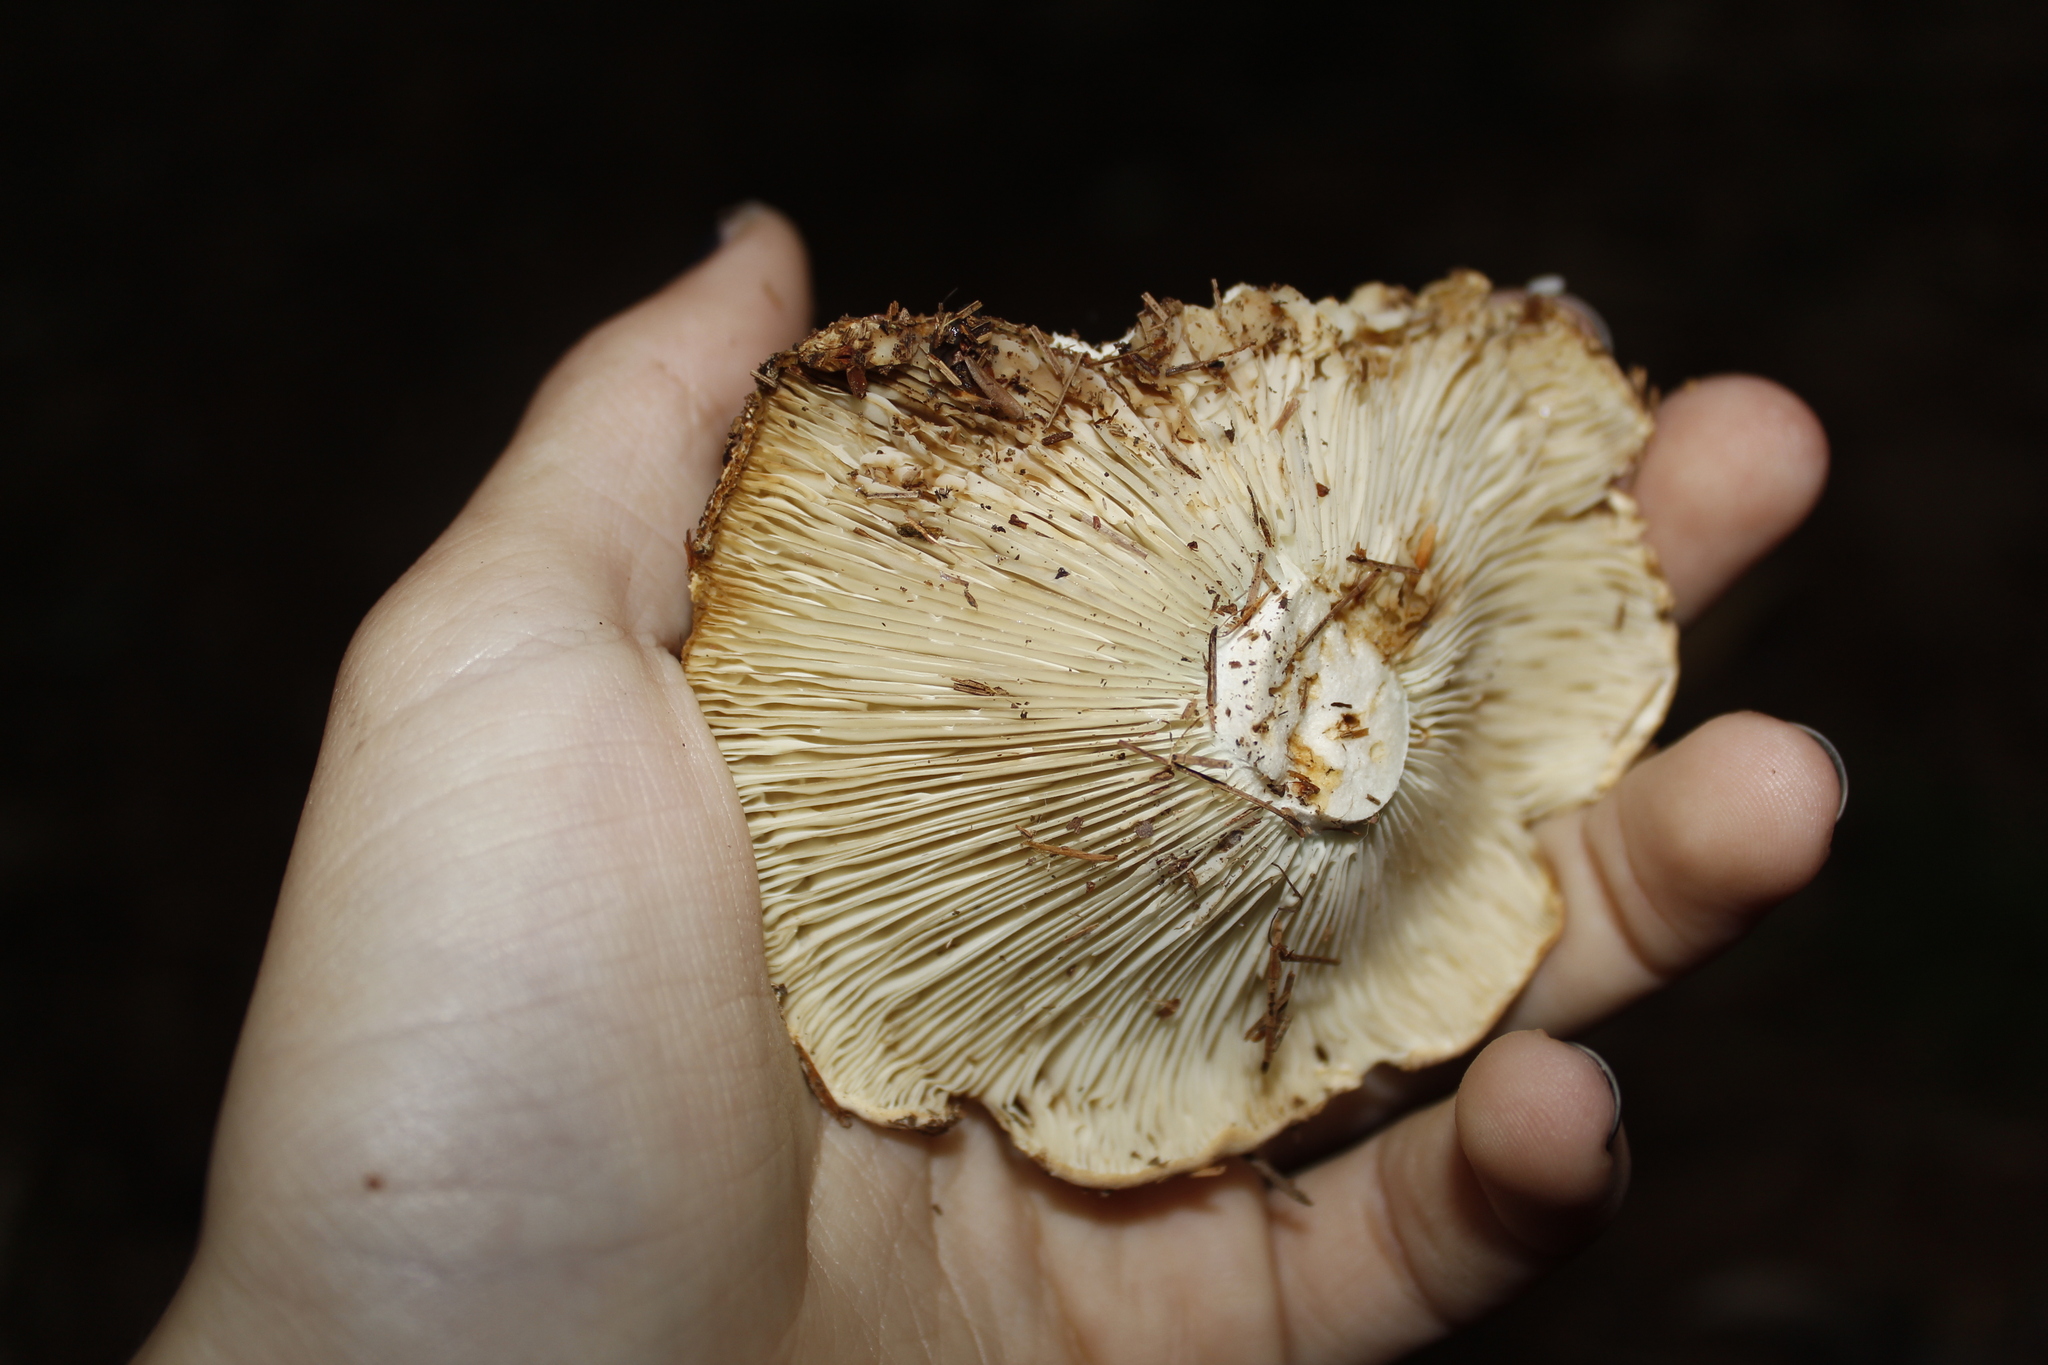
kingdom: Fungi
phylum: Basidiomycota
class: Agaricomycetes
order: Russulales
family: Russulaceae
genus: Russula
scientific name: Russula brevipes
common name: Short-stemmed russula
